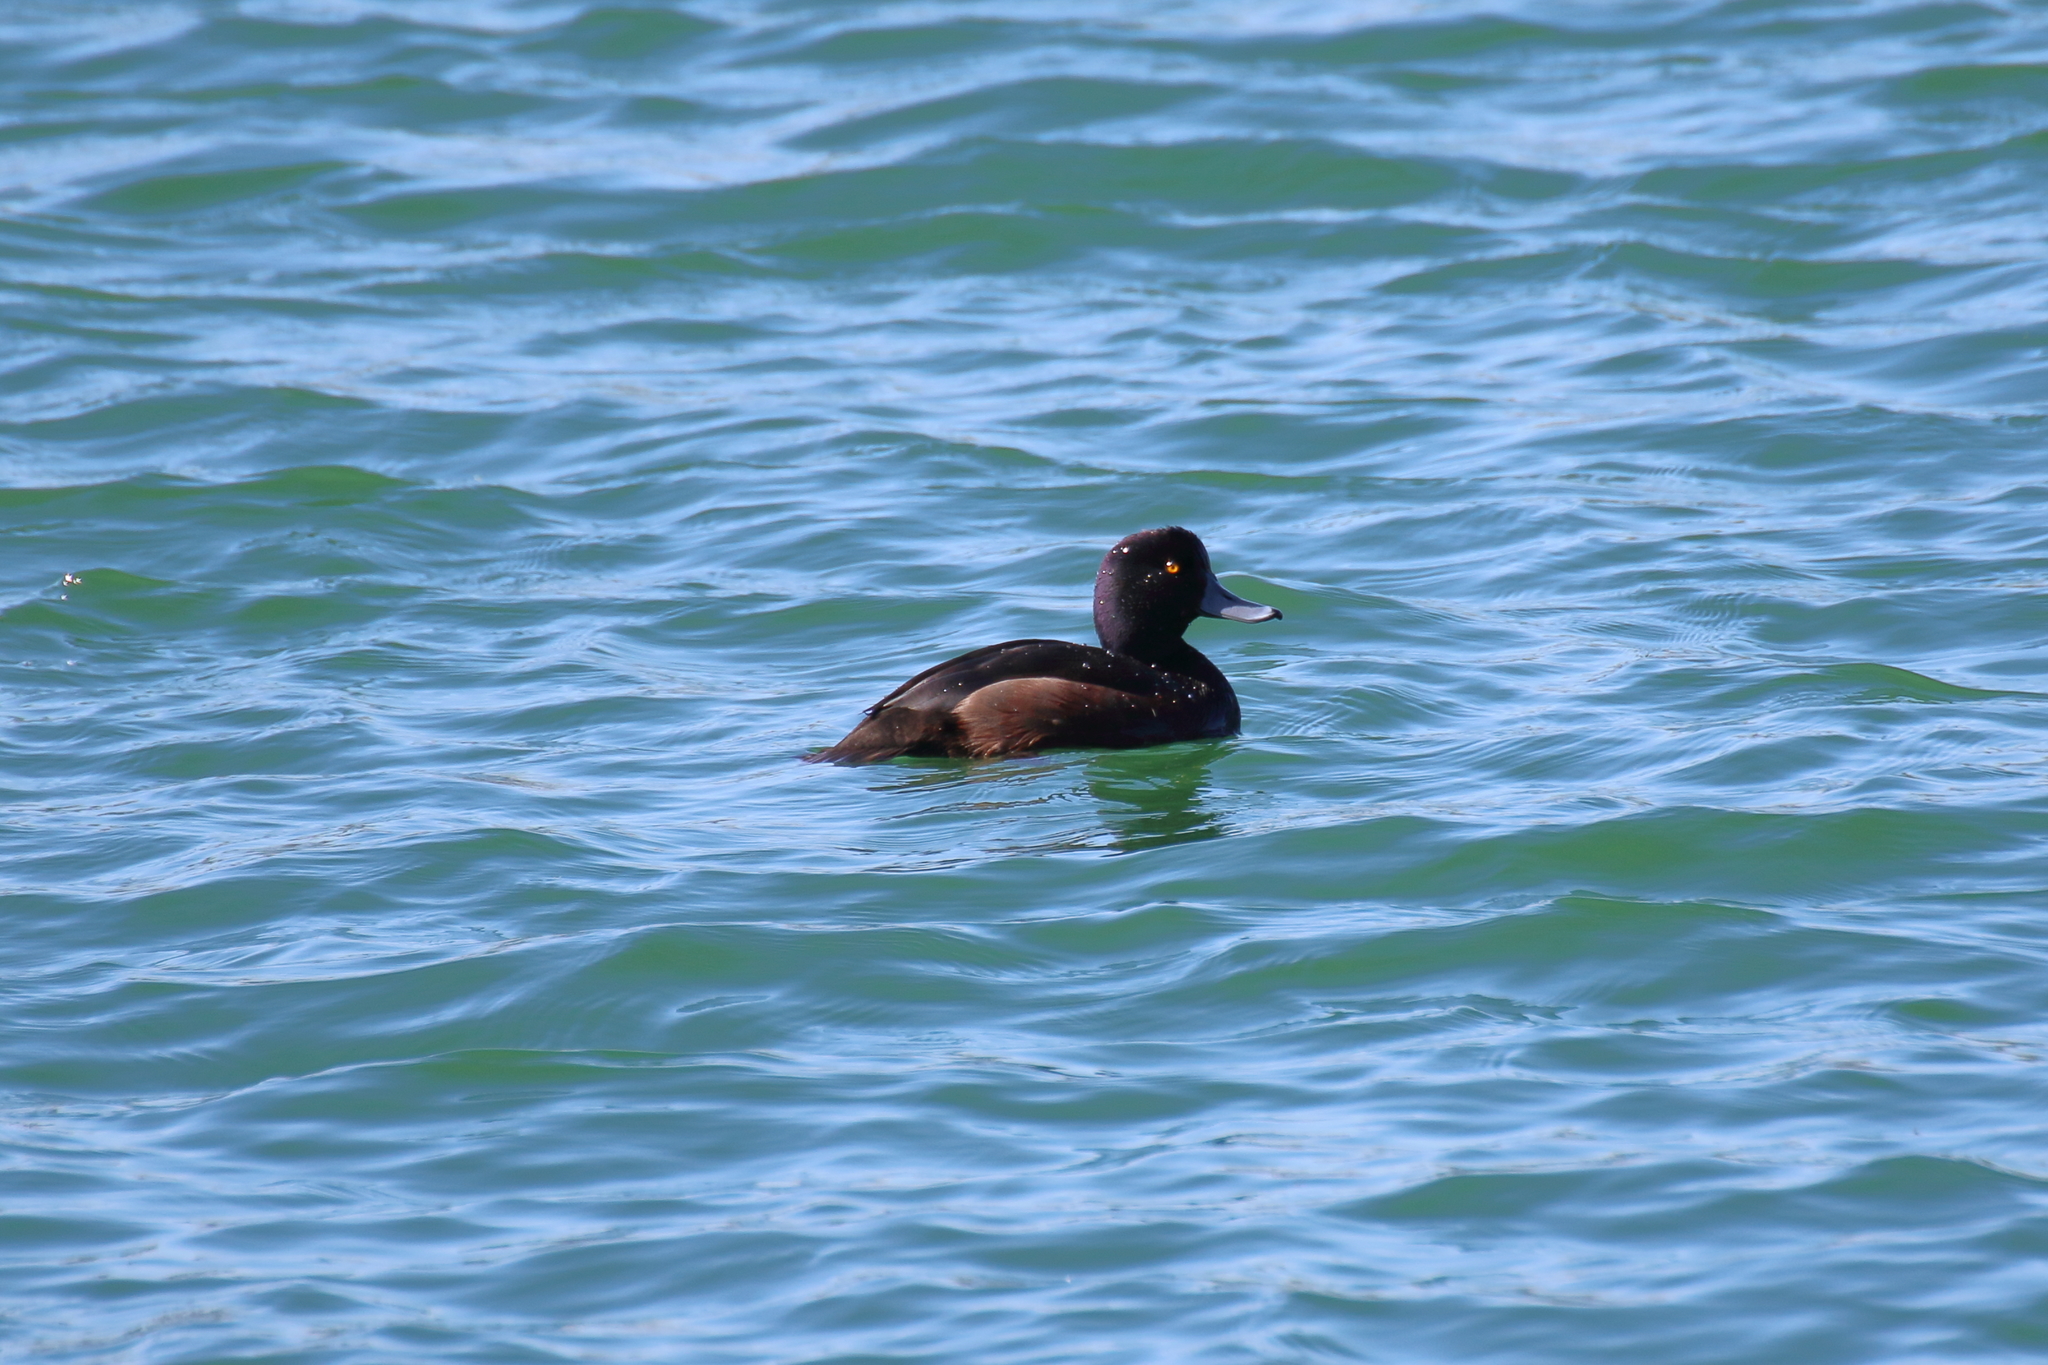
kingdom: Animalia
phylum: Chordata
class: Aves
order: Anseriformes
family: Anatidae
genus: Aythya
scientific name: Aythya novaeseelandiae
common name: New zealand scaup
